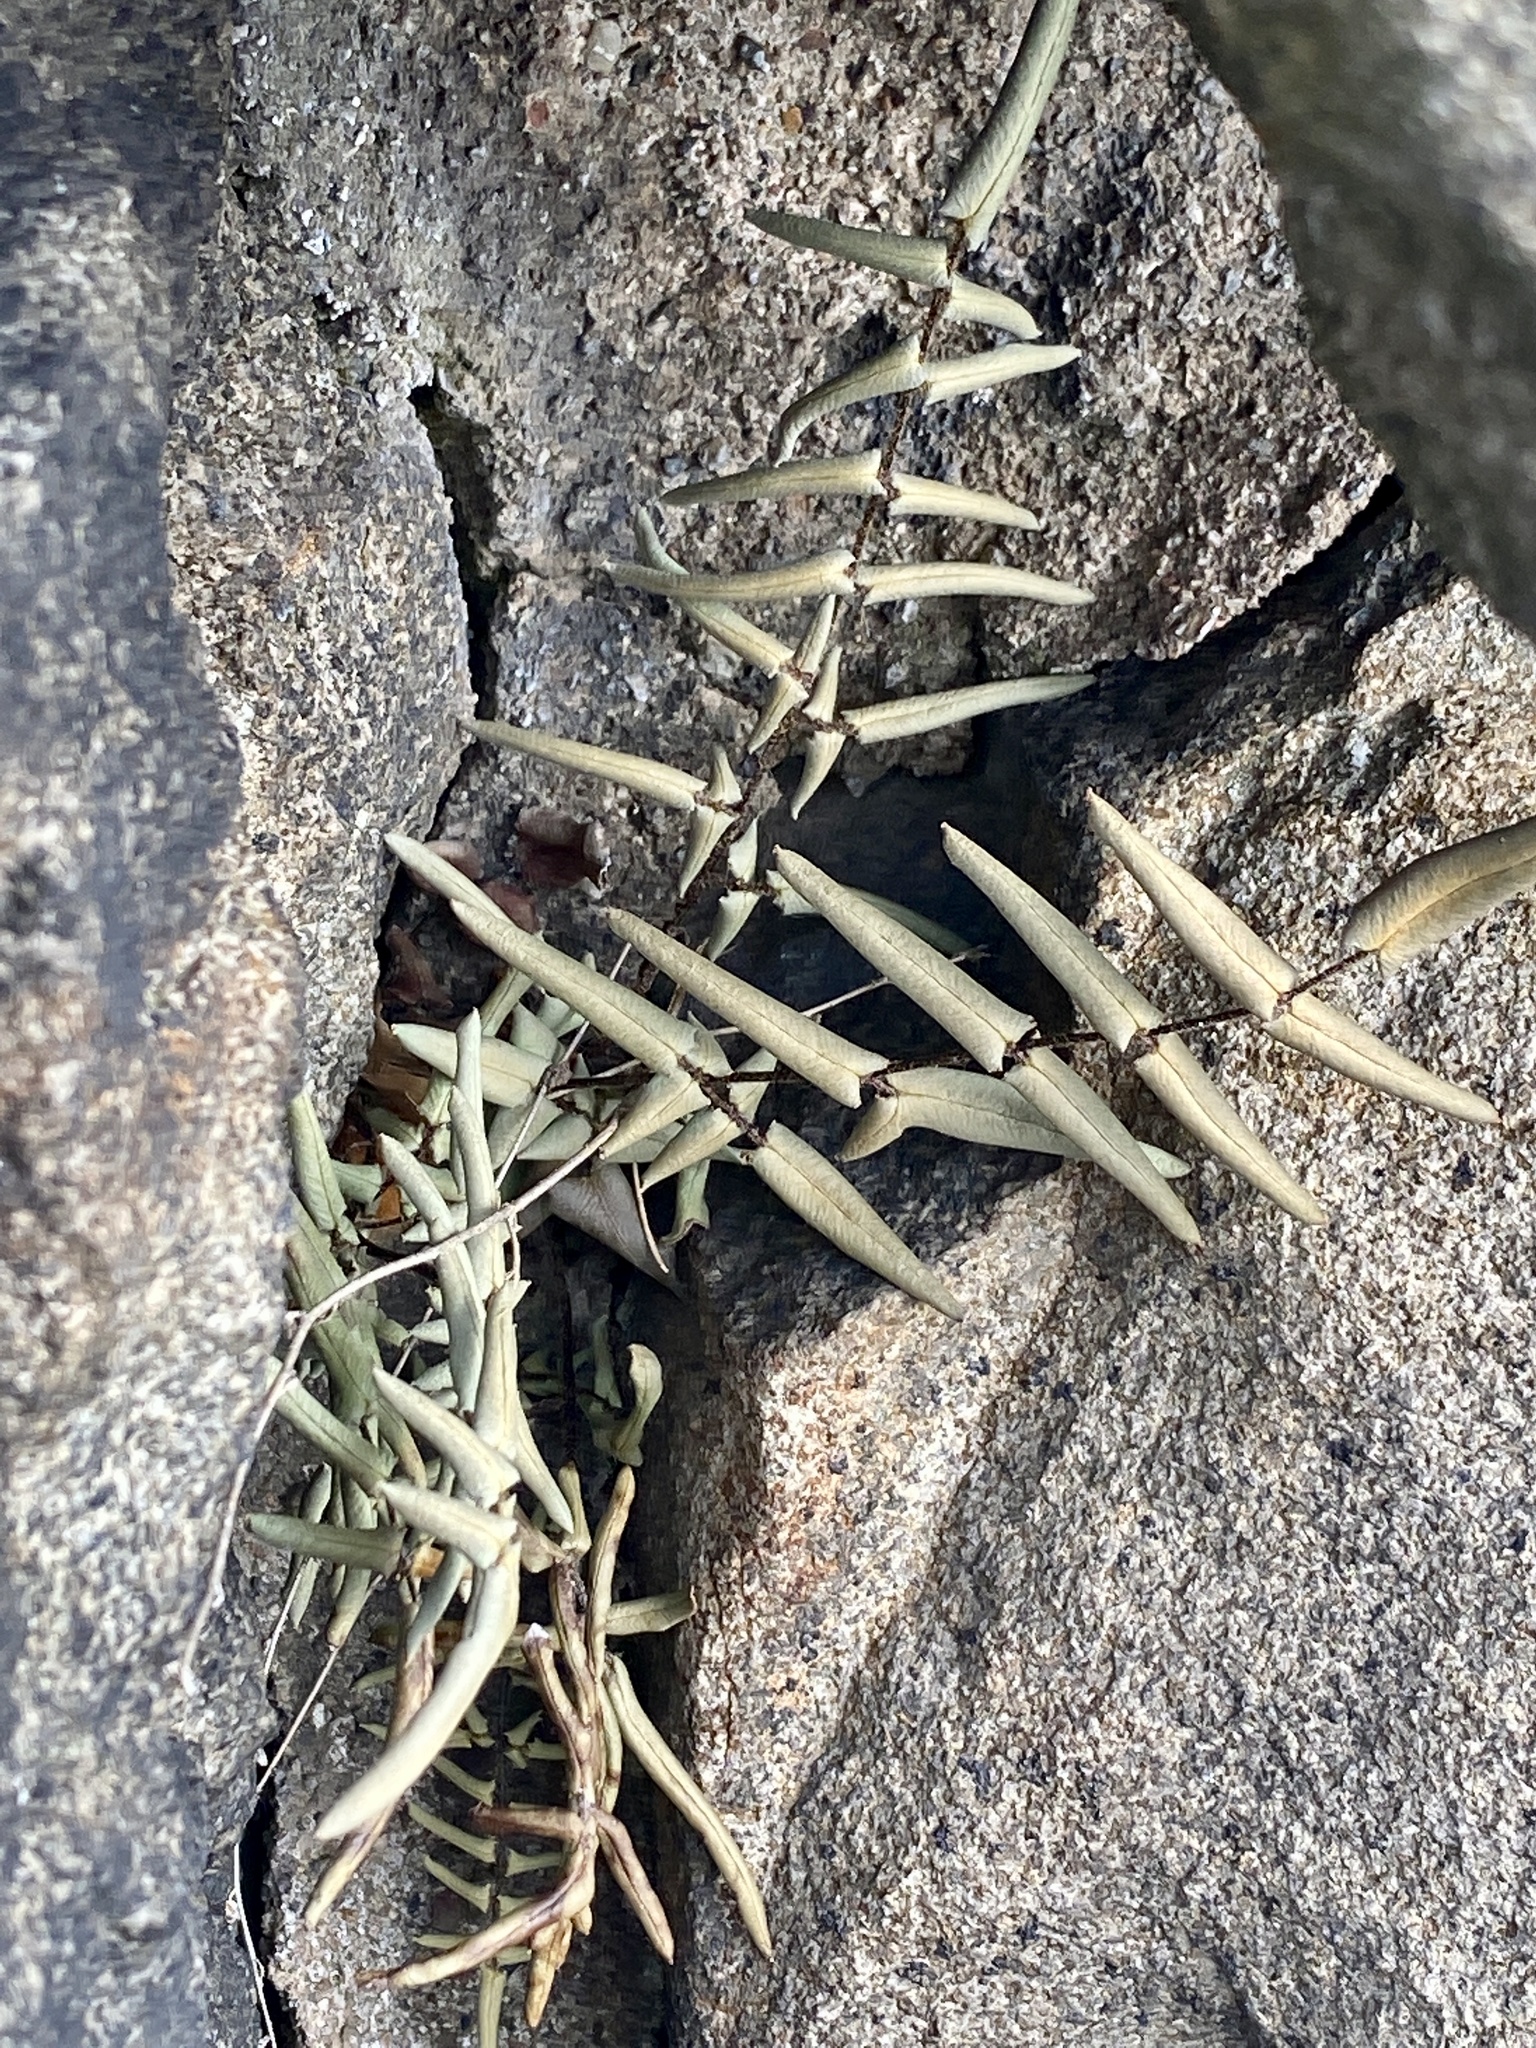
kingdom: Plantae
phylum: Tracheophyta
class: Polypodiopsida
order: Polypodiales
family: Pteridaceae
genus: Pellaea
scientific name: Pellaea atropurpurea
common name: Hairy cliffbrake
